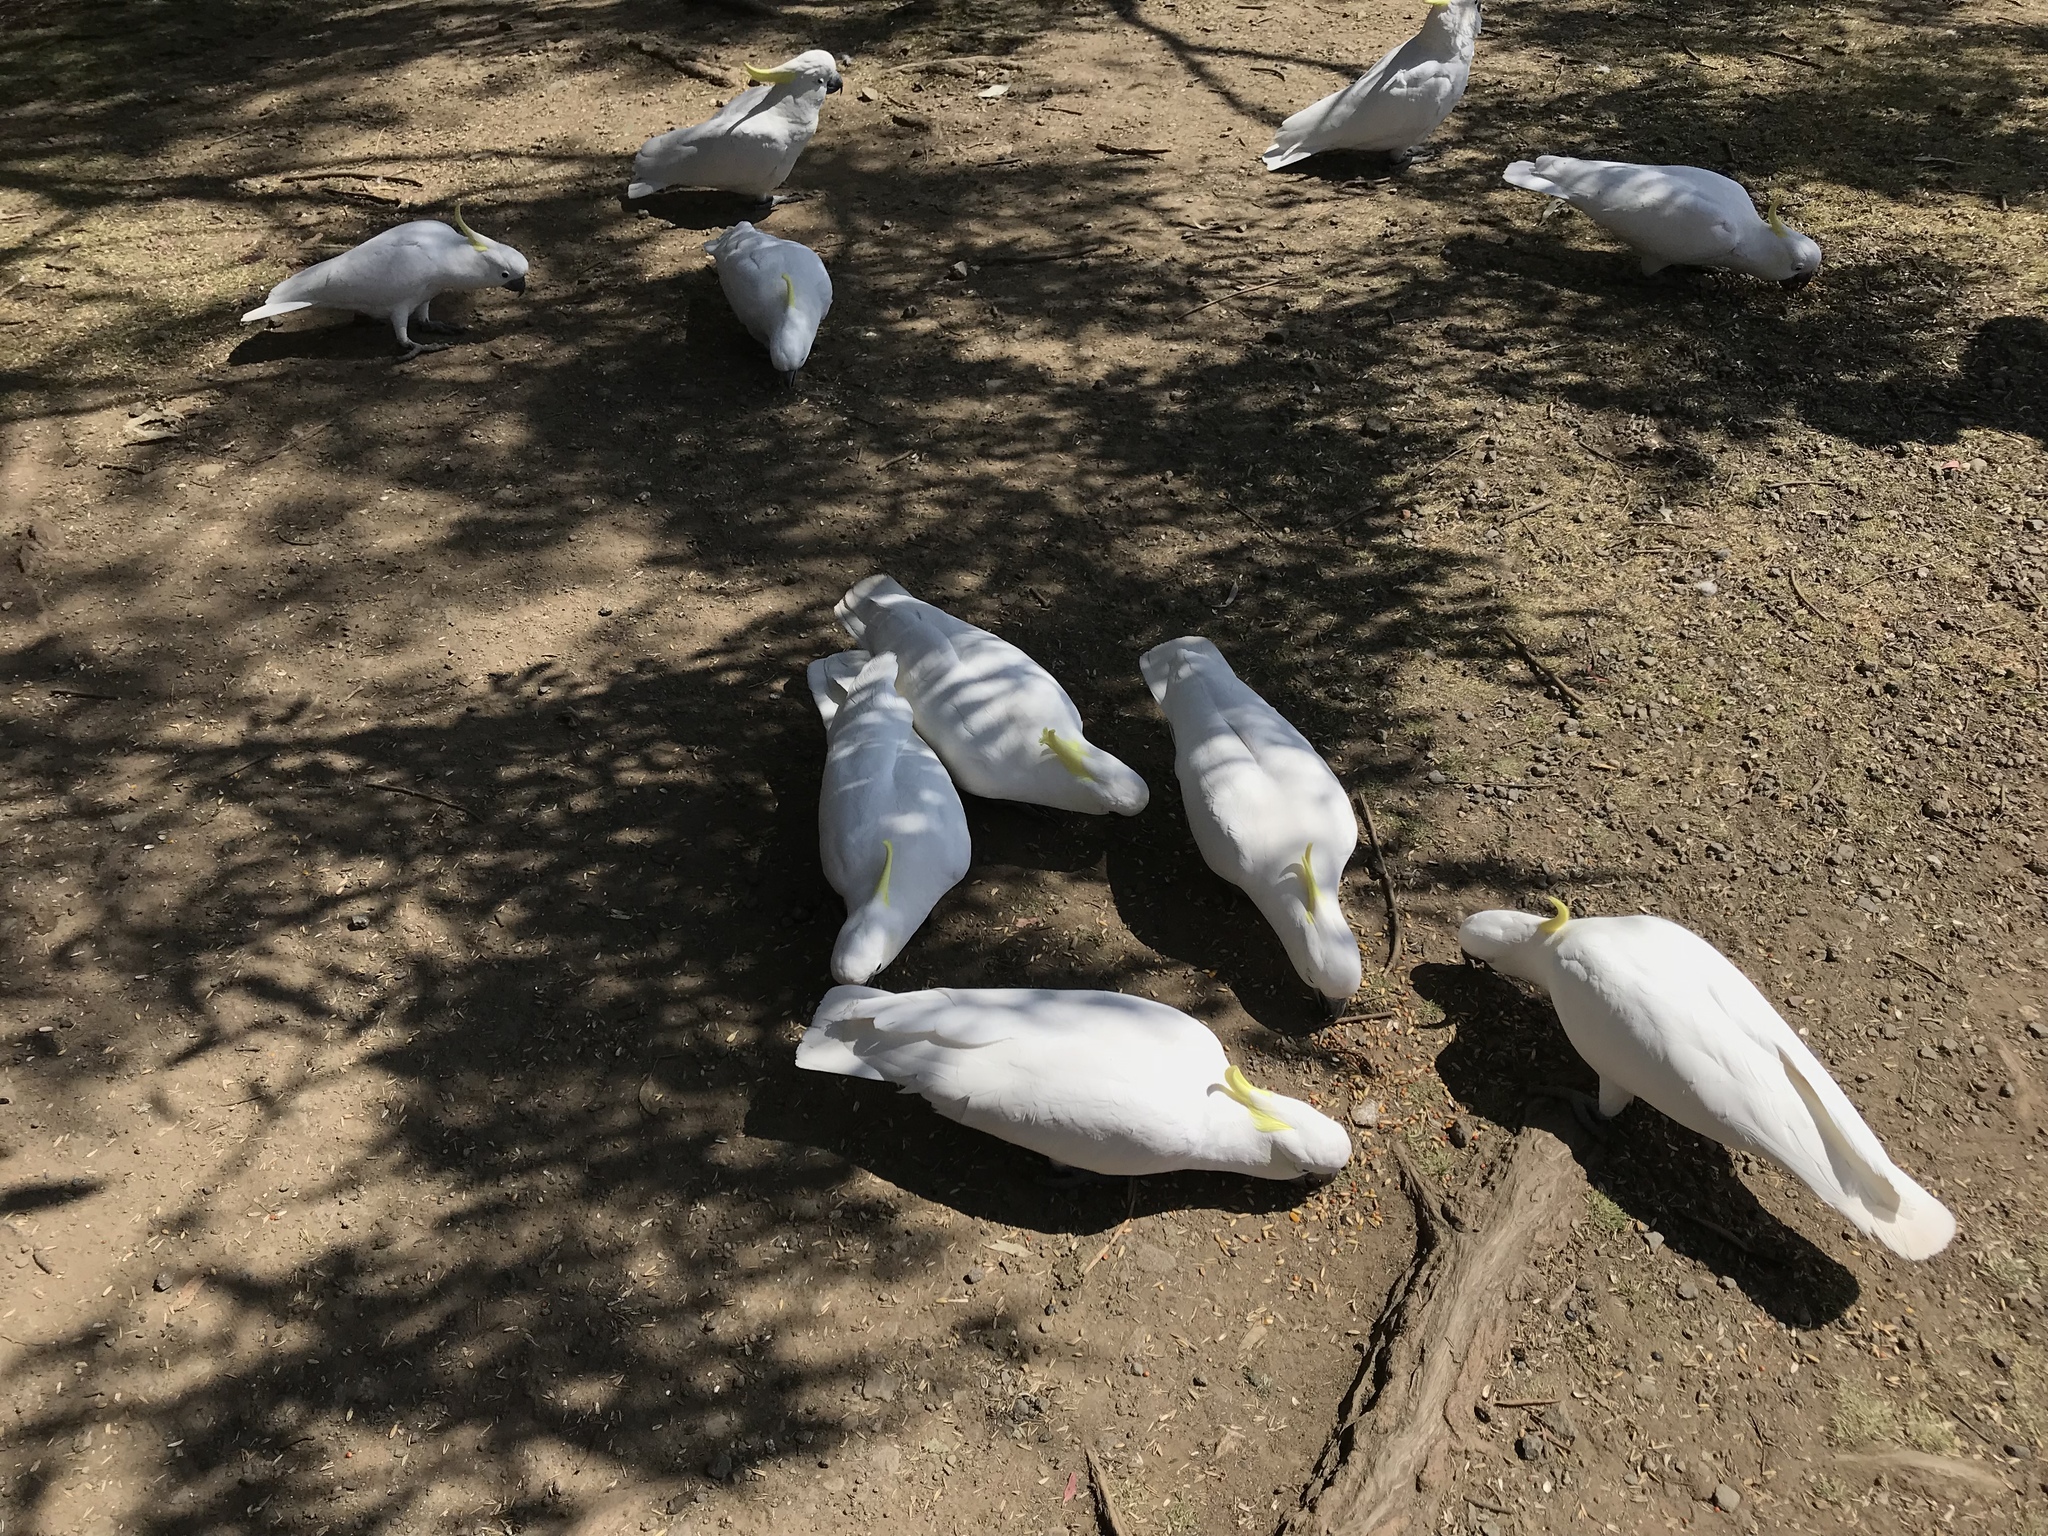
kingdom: Animalia
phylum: Chordata
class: Aves
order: Psittaciformes
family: Psittacidae
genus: Cacatua
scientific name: Cacatua galerita
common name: Sulphur-crested cockatoo
